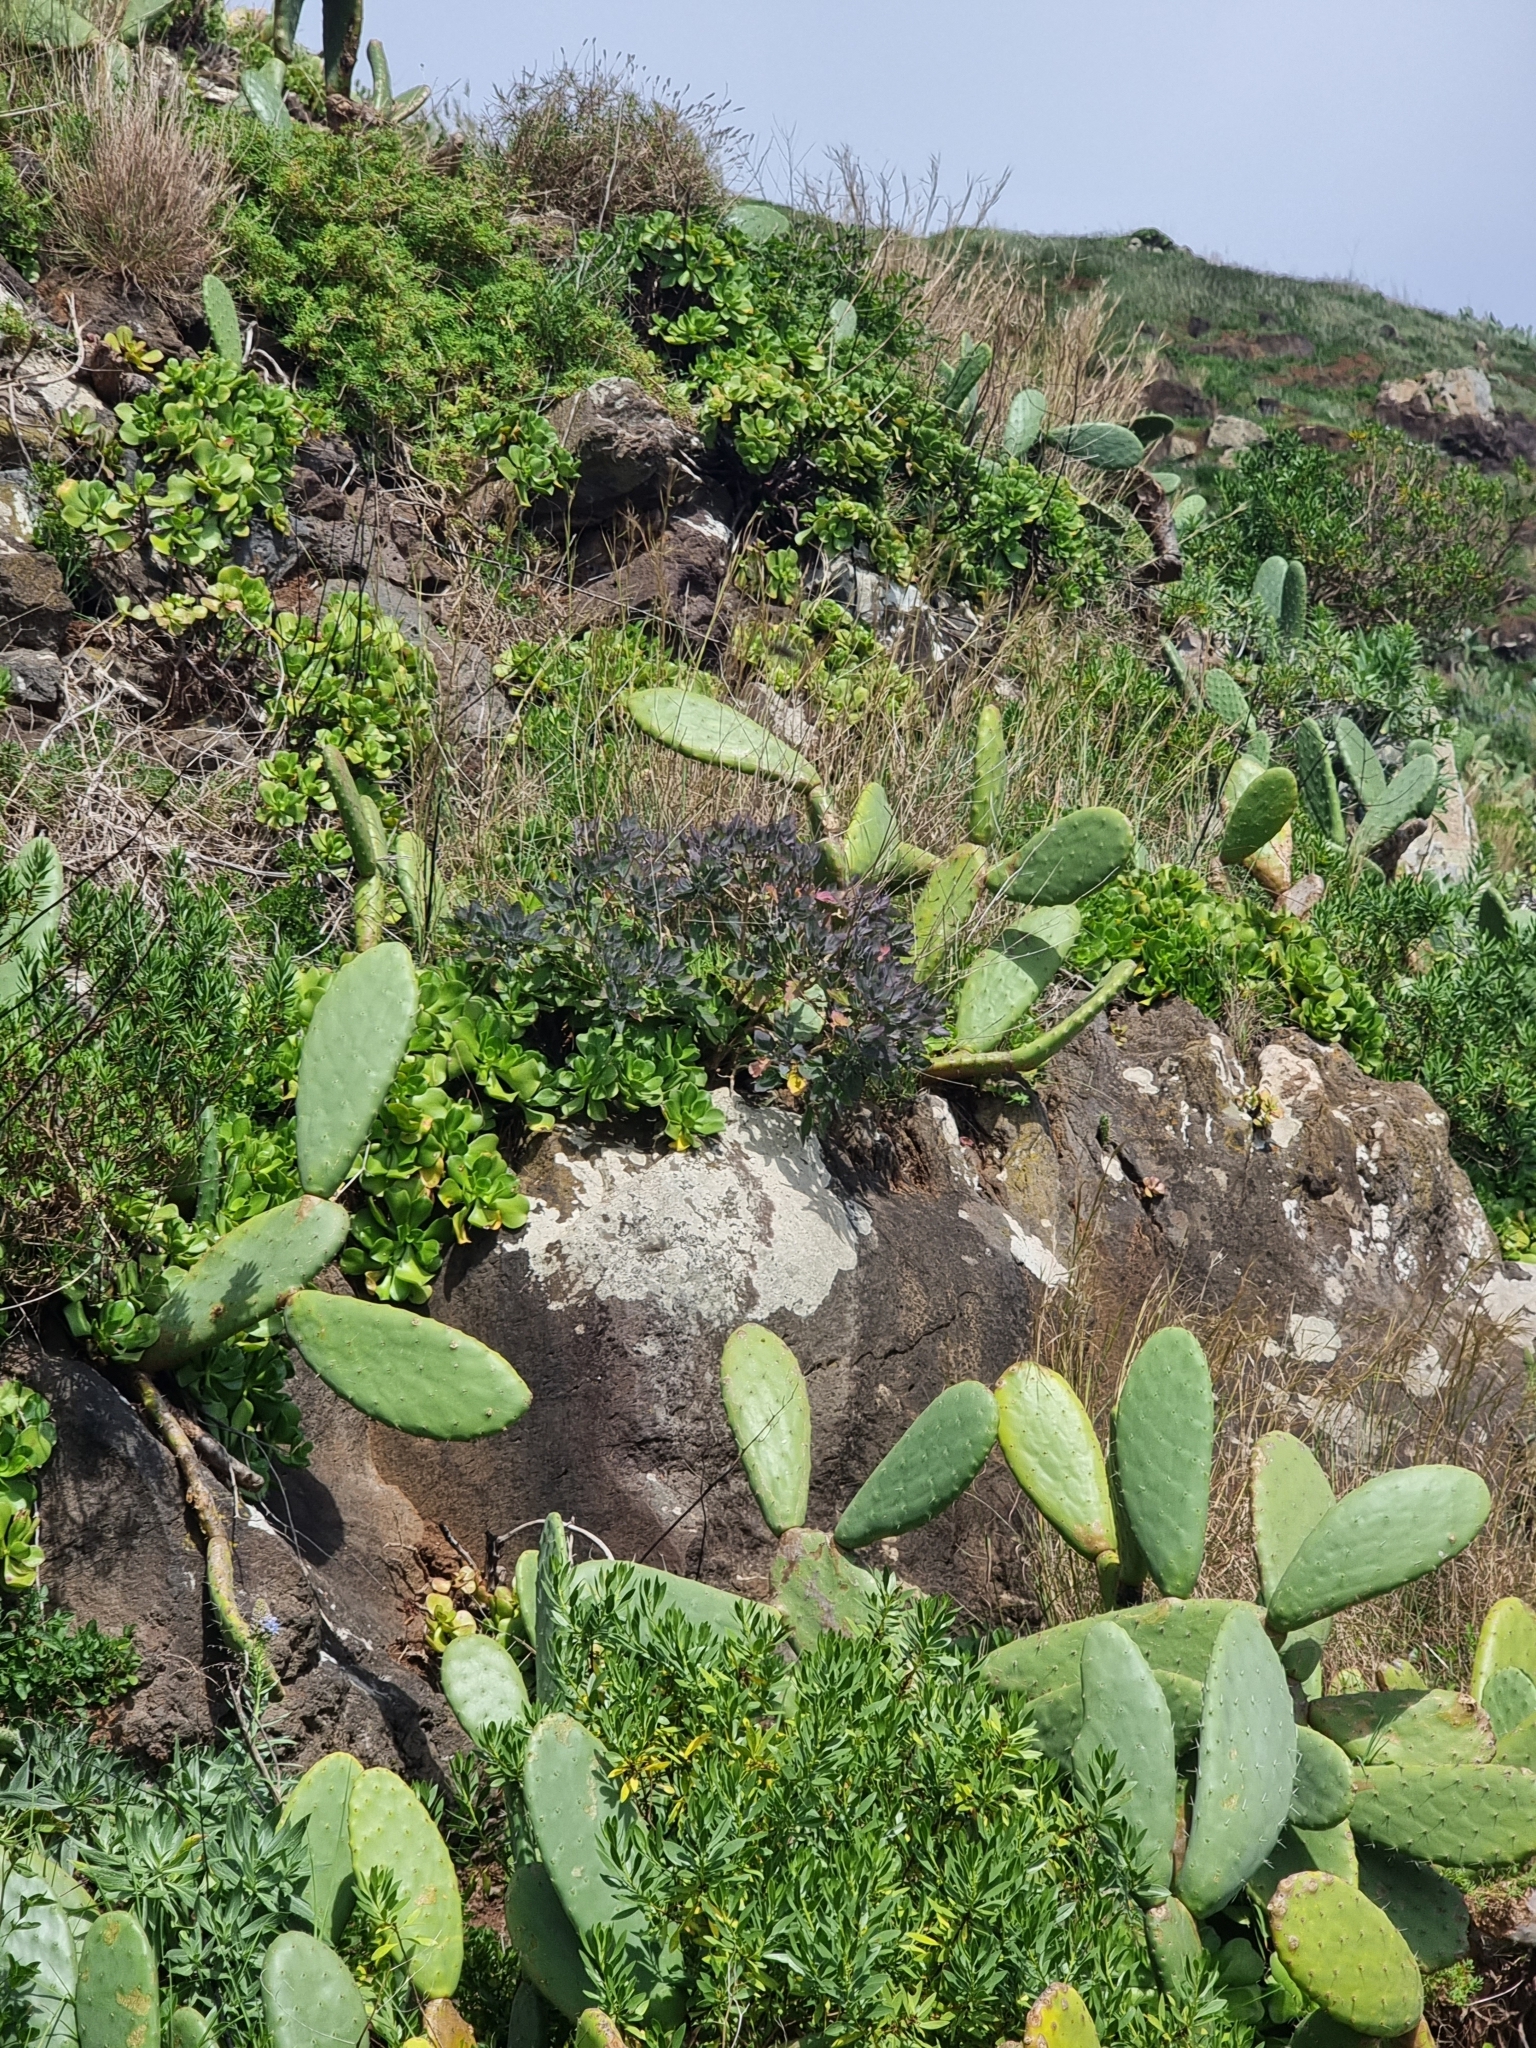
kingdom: Plantae
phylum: Tracheophyta
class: Magnoliopsida
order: Brassicales
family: Brassicaceae
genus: Crambe
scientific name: Crambe fruticosa
